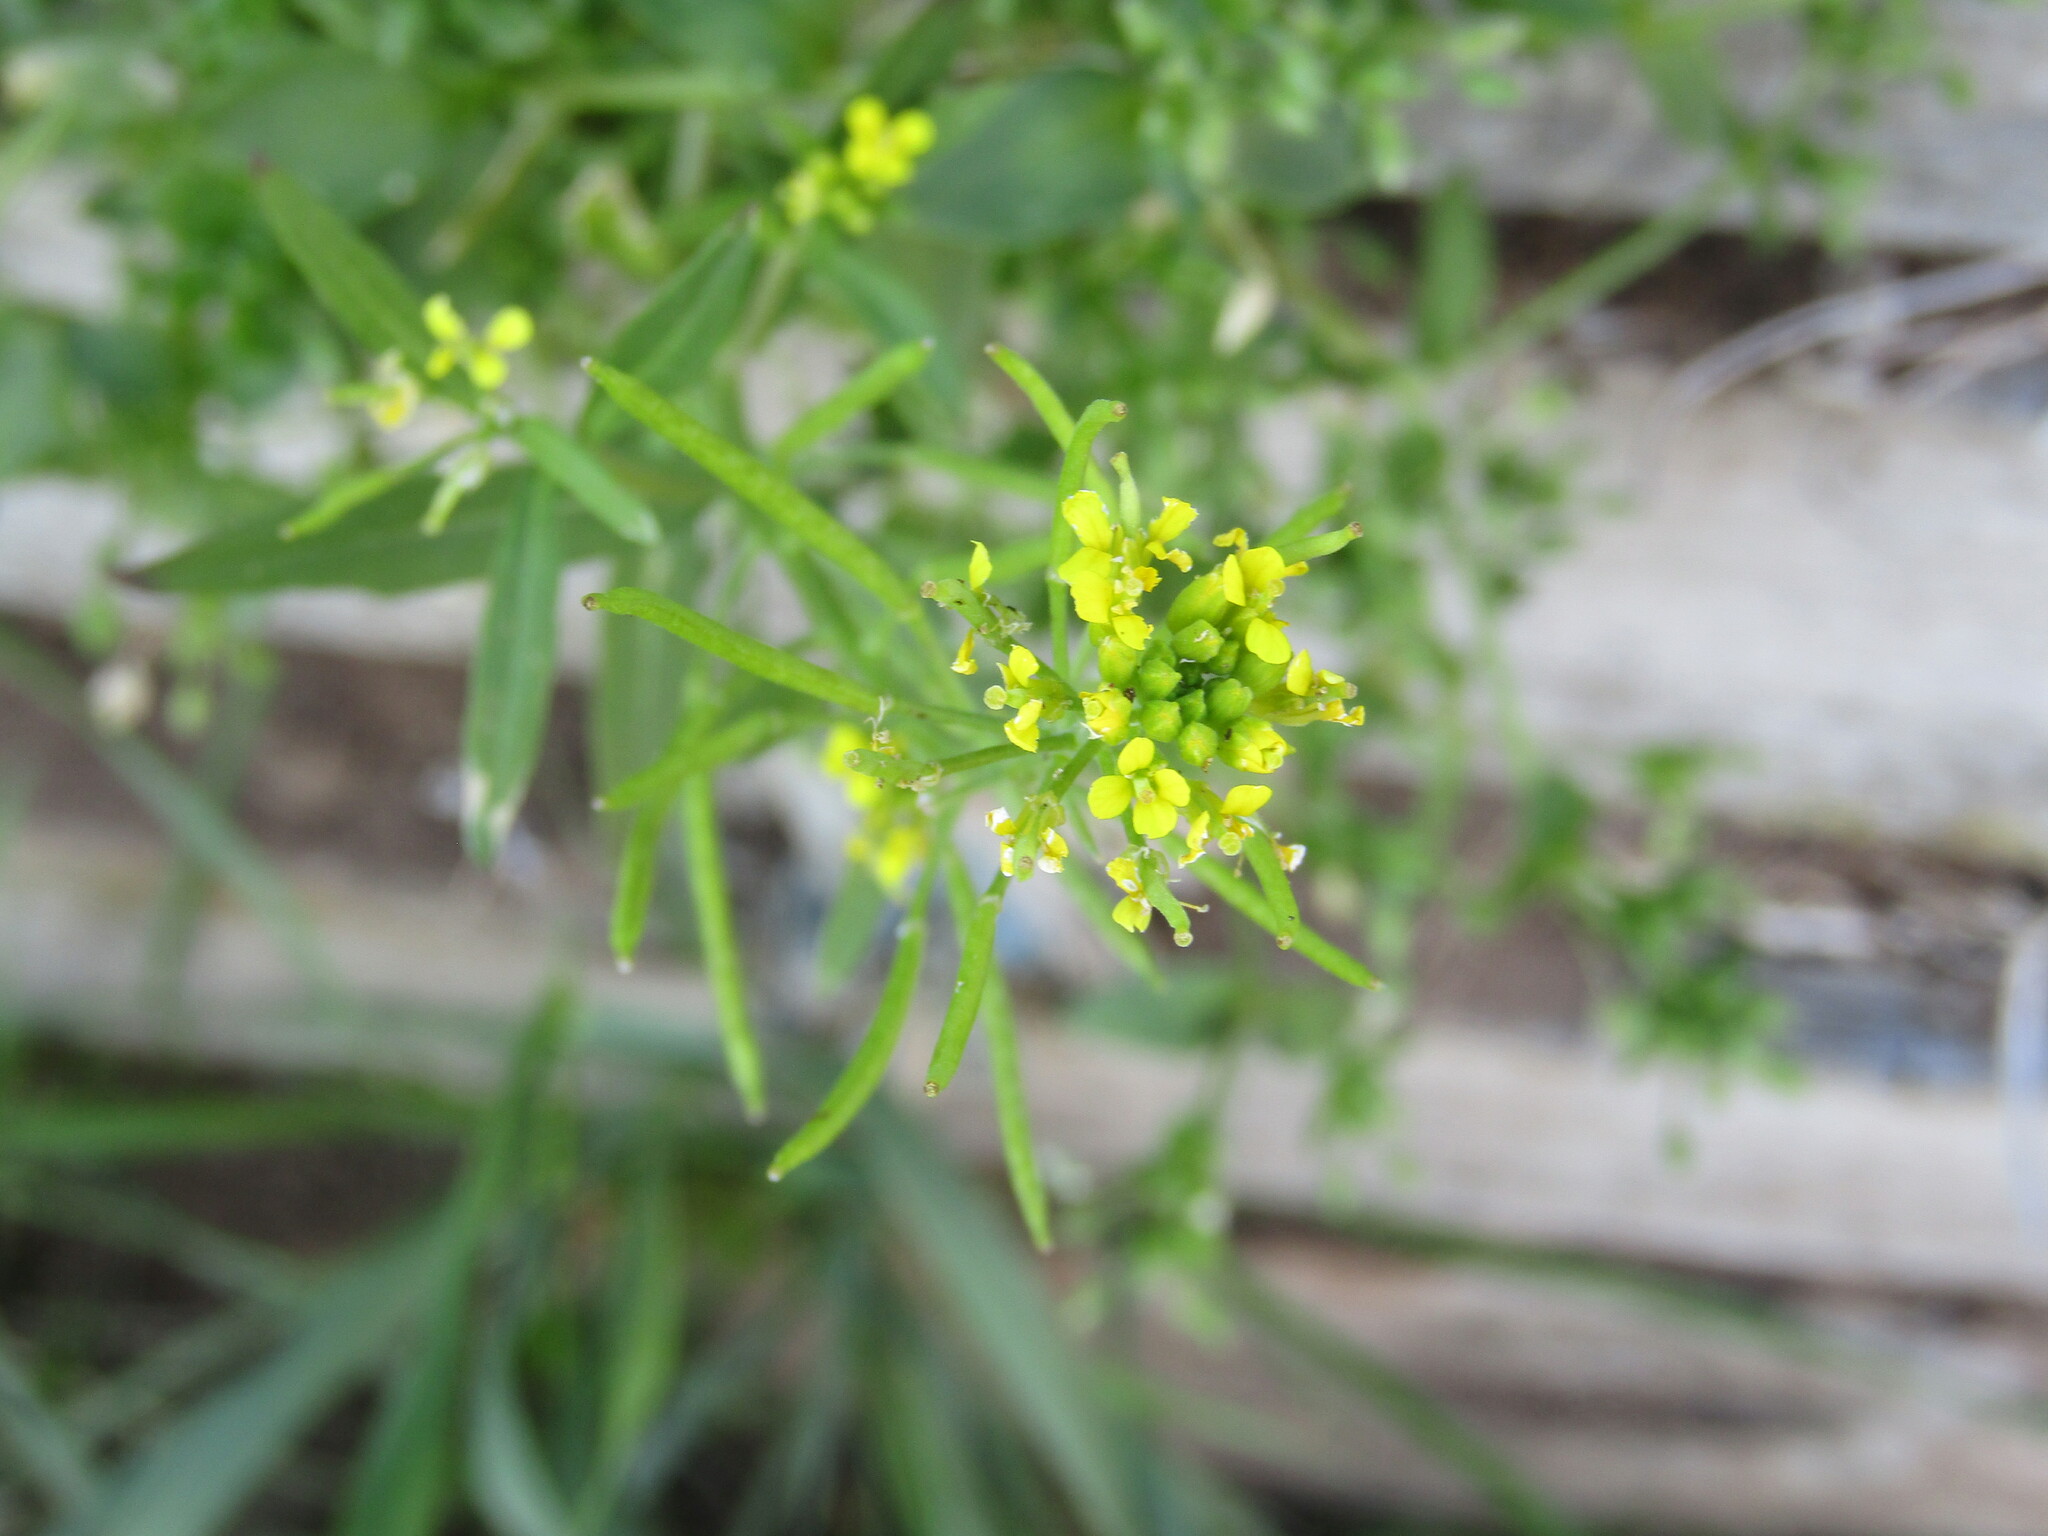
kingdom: Plantae
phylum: Tracheophyta
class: Magnoliopsida
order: Brassicales
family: Brassicaceae
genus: Erysimum
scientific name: Erysimum cheiranthoides
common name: Treacle mustard
